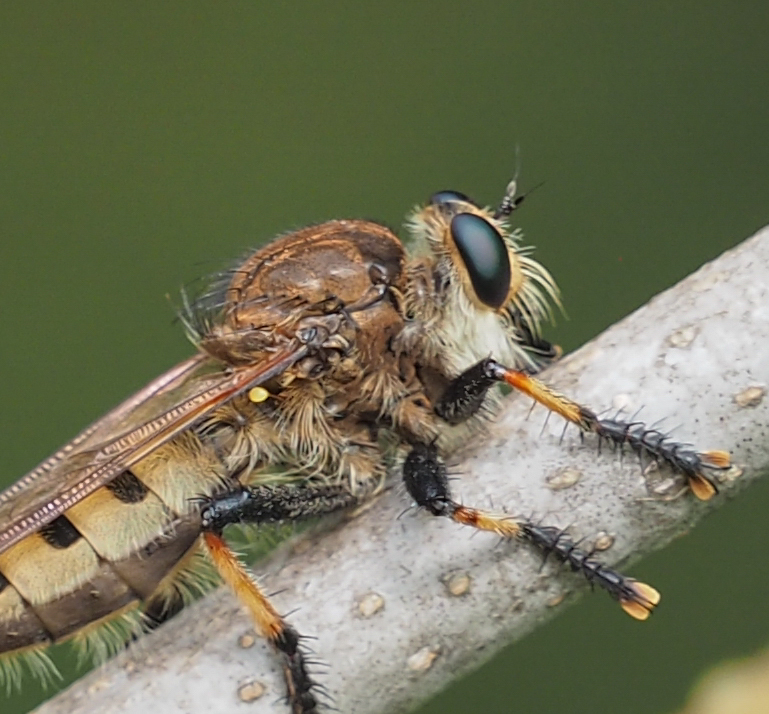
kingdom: Animalia
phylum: Arthropoda
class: Insecta
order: Diptera
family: Asilidae
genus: Promachus
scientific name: Promachus rufipes
